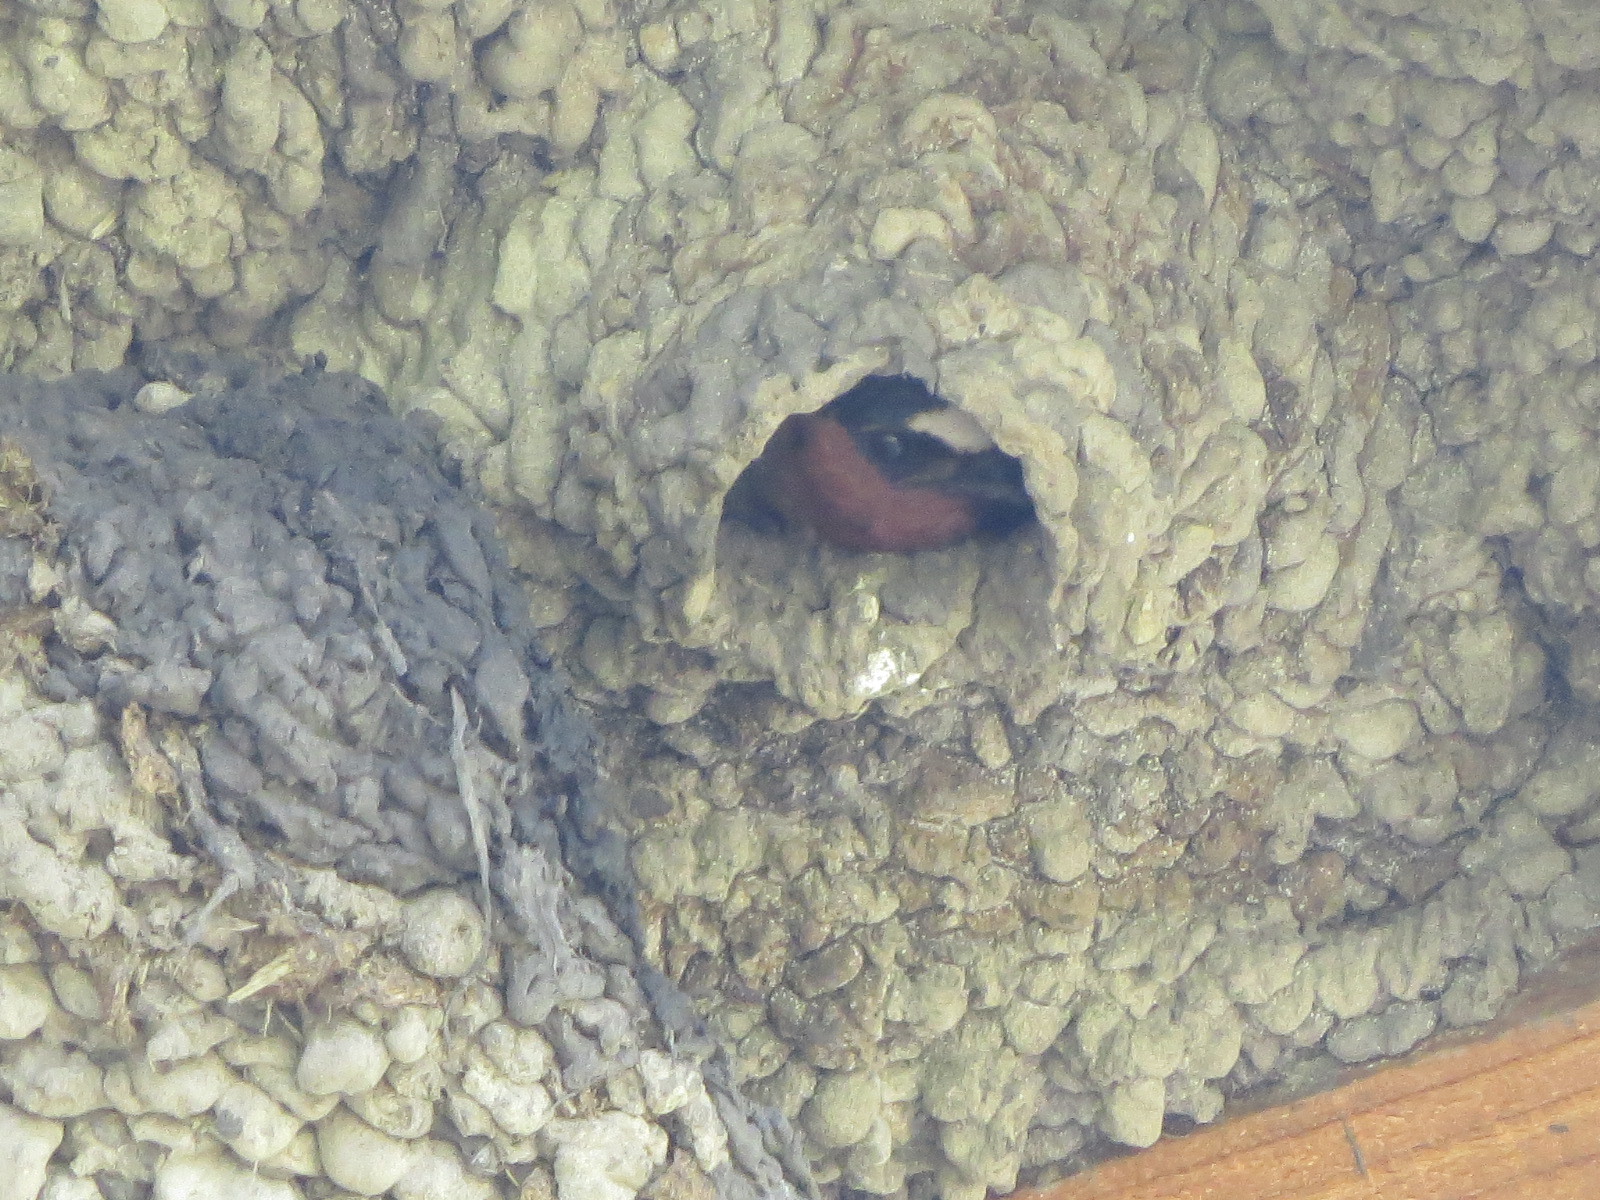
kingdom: Animalia
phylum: Chordata
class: Aves
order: Passeriformes
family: Hirundinidae
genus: Petrochelidon
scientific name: Petrochelidon pyrrhonota
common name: American cliff swallow
